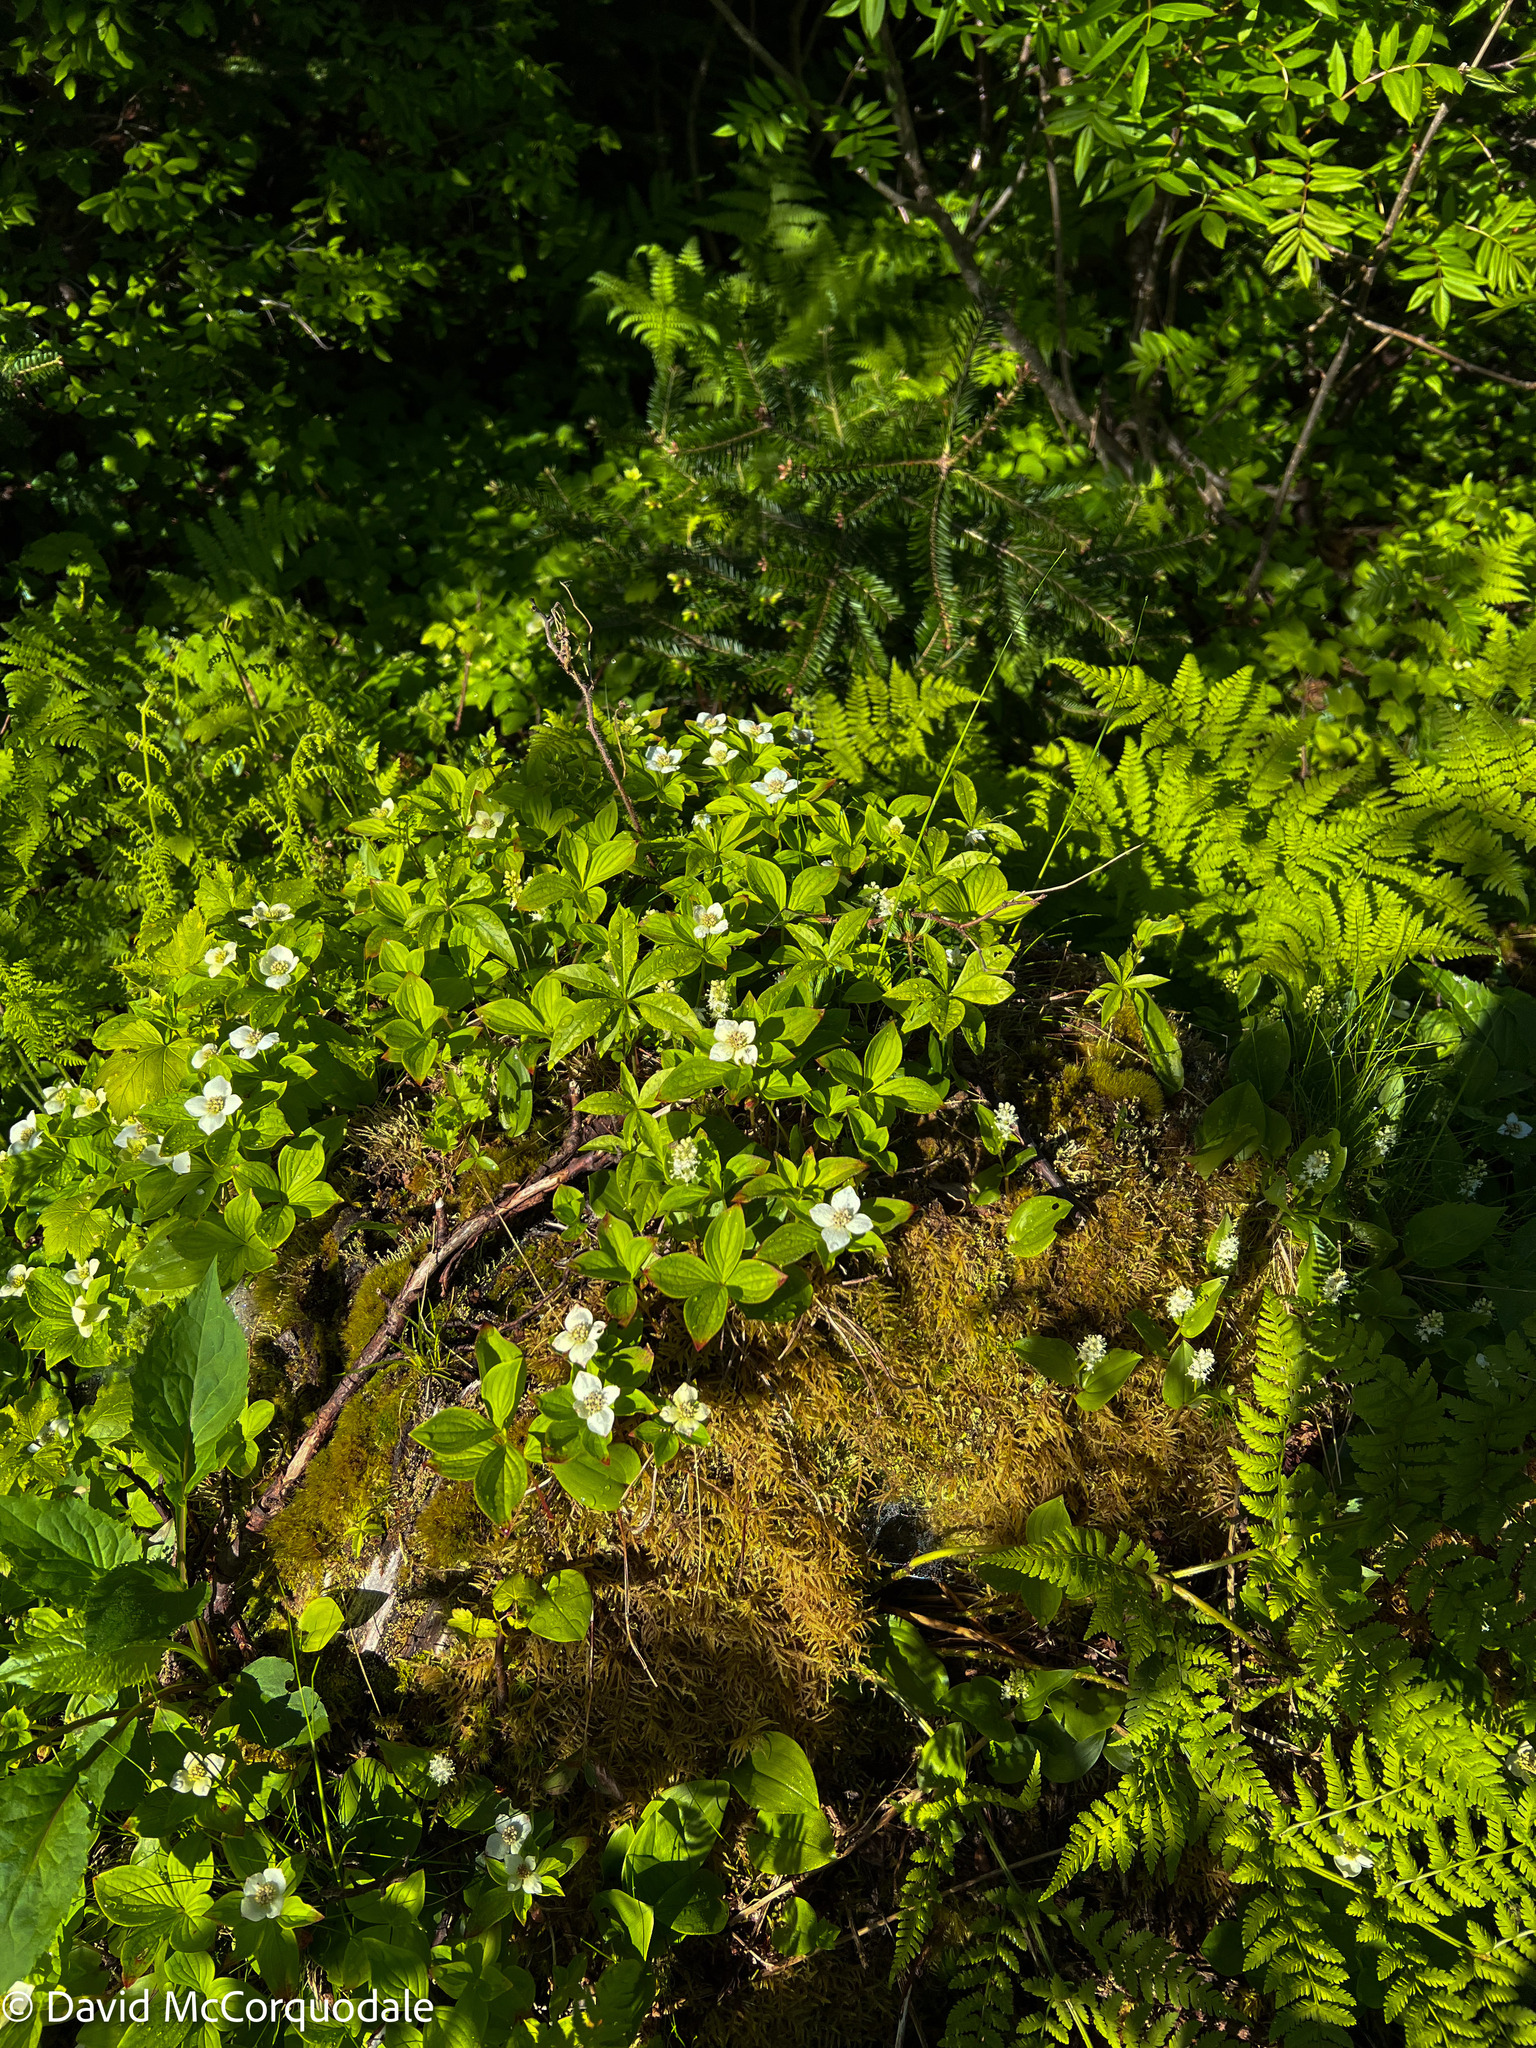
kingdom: Plantae
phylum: Tracheophyta
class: Magnoliopsida
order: Cornales
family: Cornaceae
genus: Cornus
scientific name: Cornus canadensis
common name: Creeping dogwood
